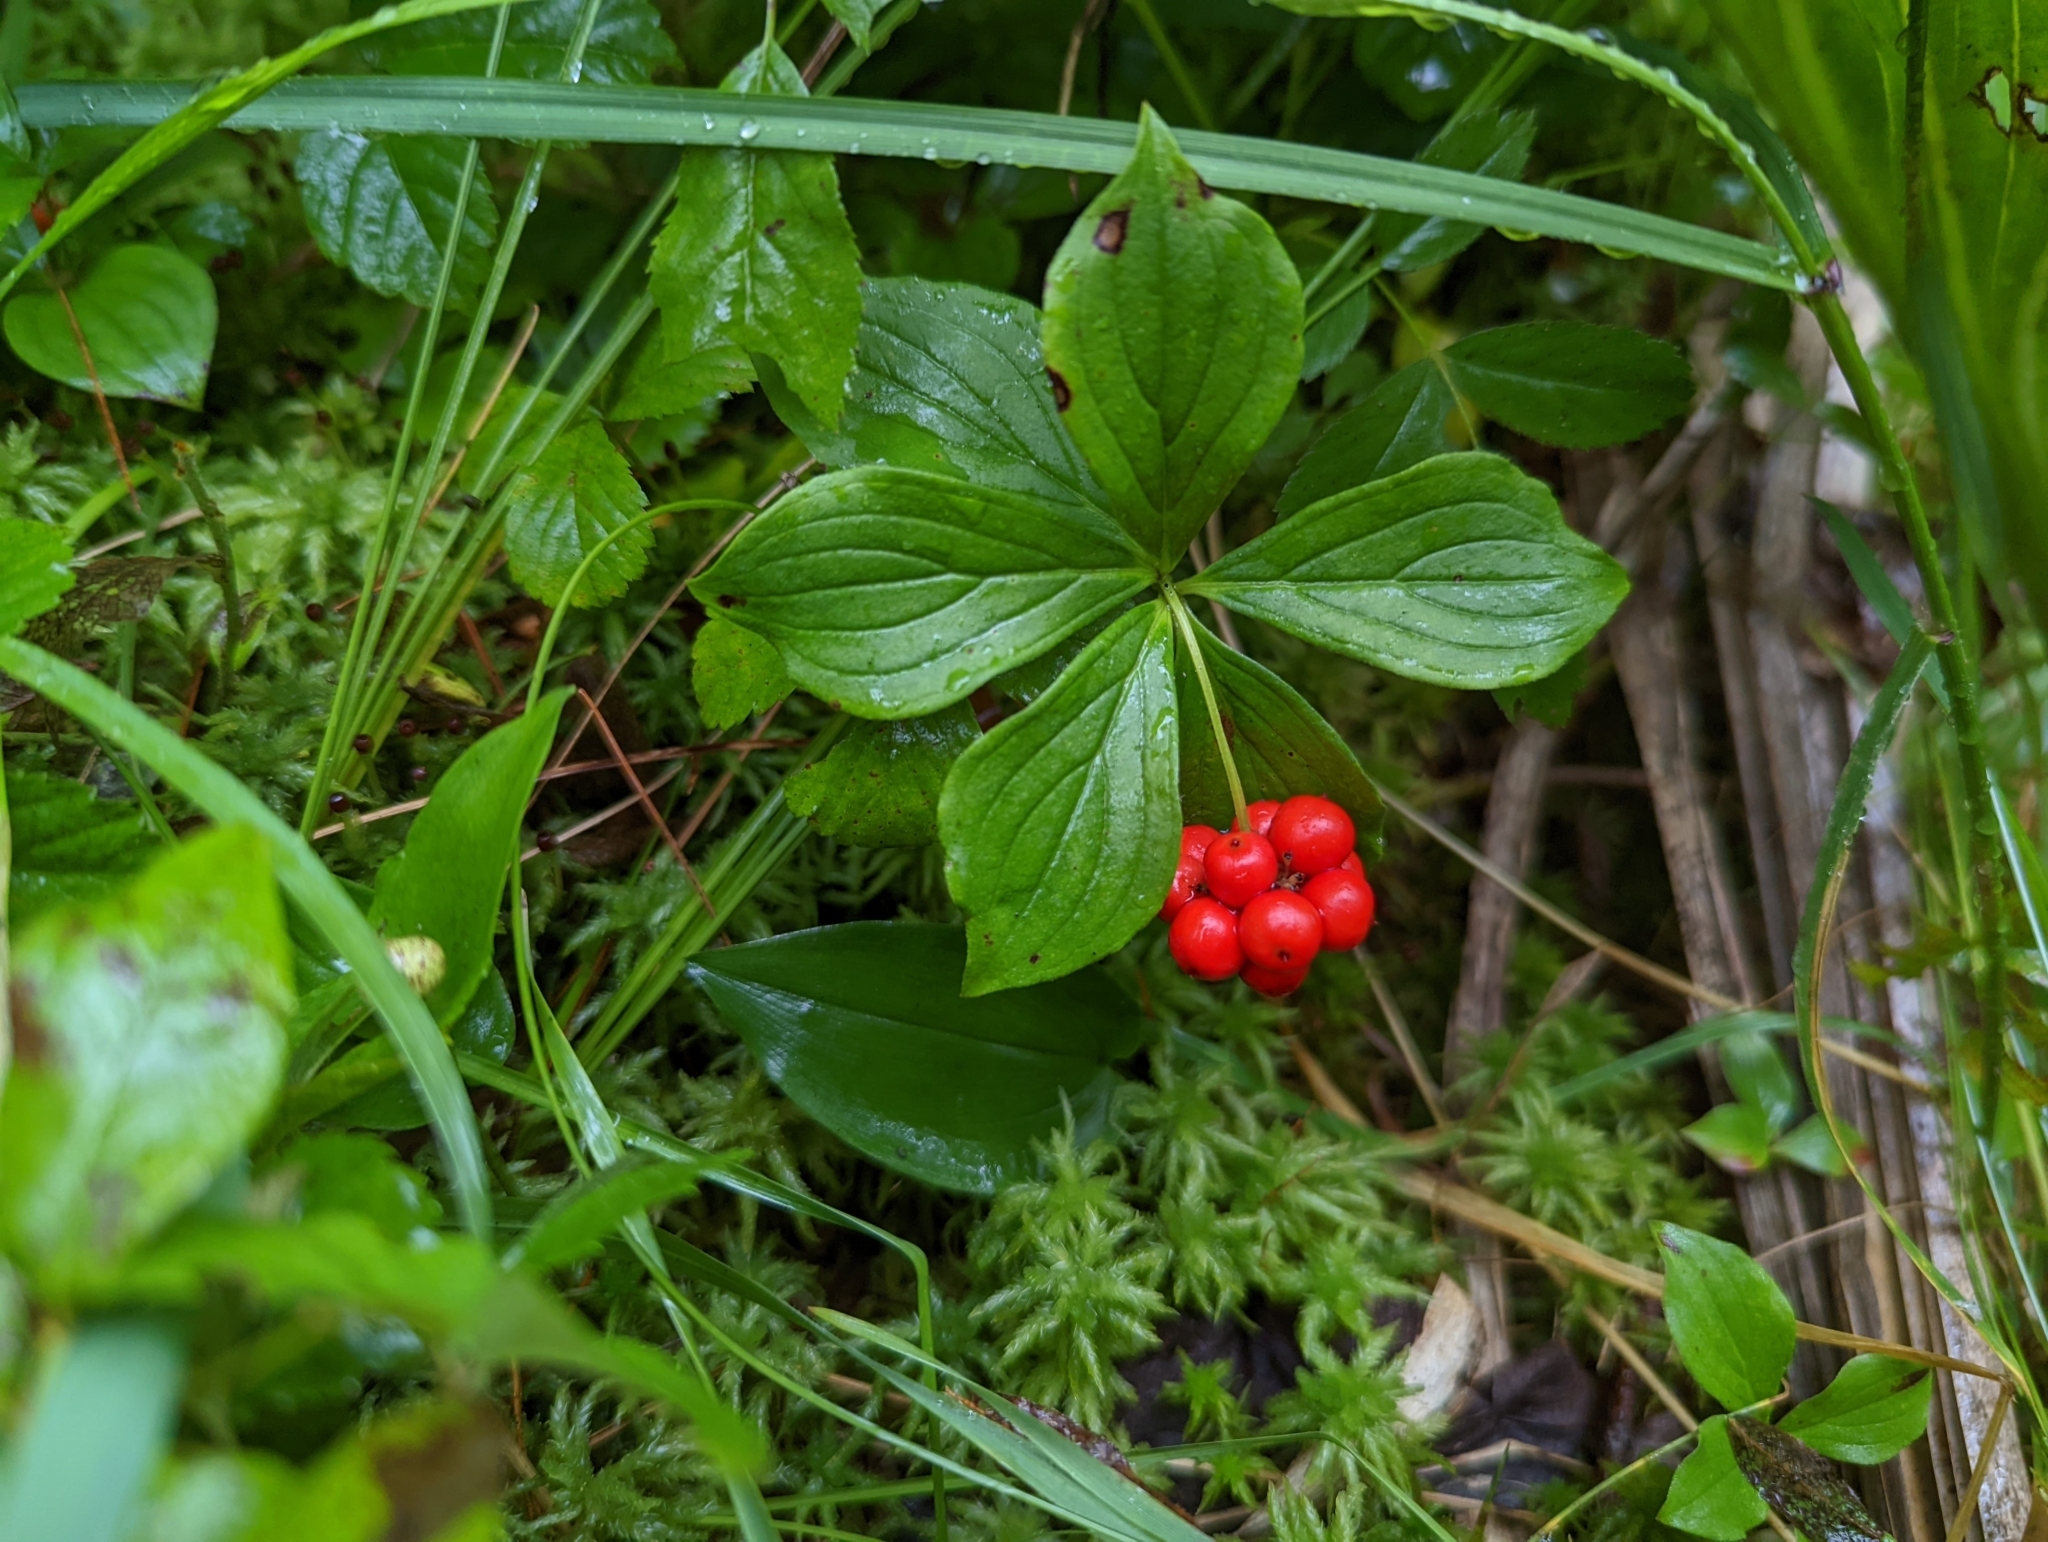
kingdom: Plantae
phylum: Tracheophyta
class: Magnoliopsida
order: Cornales
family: Cornaceae
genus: Cornus
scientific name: Cornus canadensis
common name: Creeping dogwood
